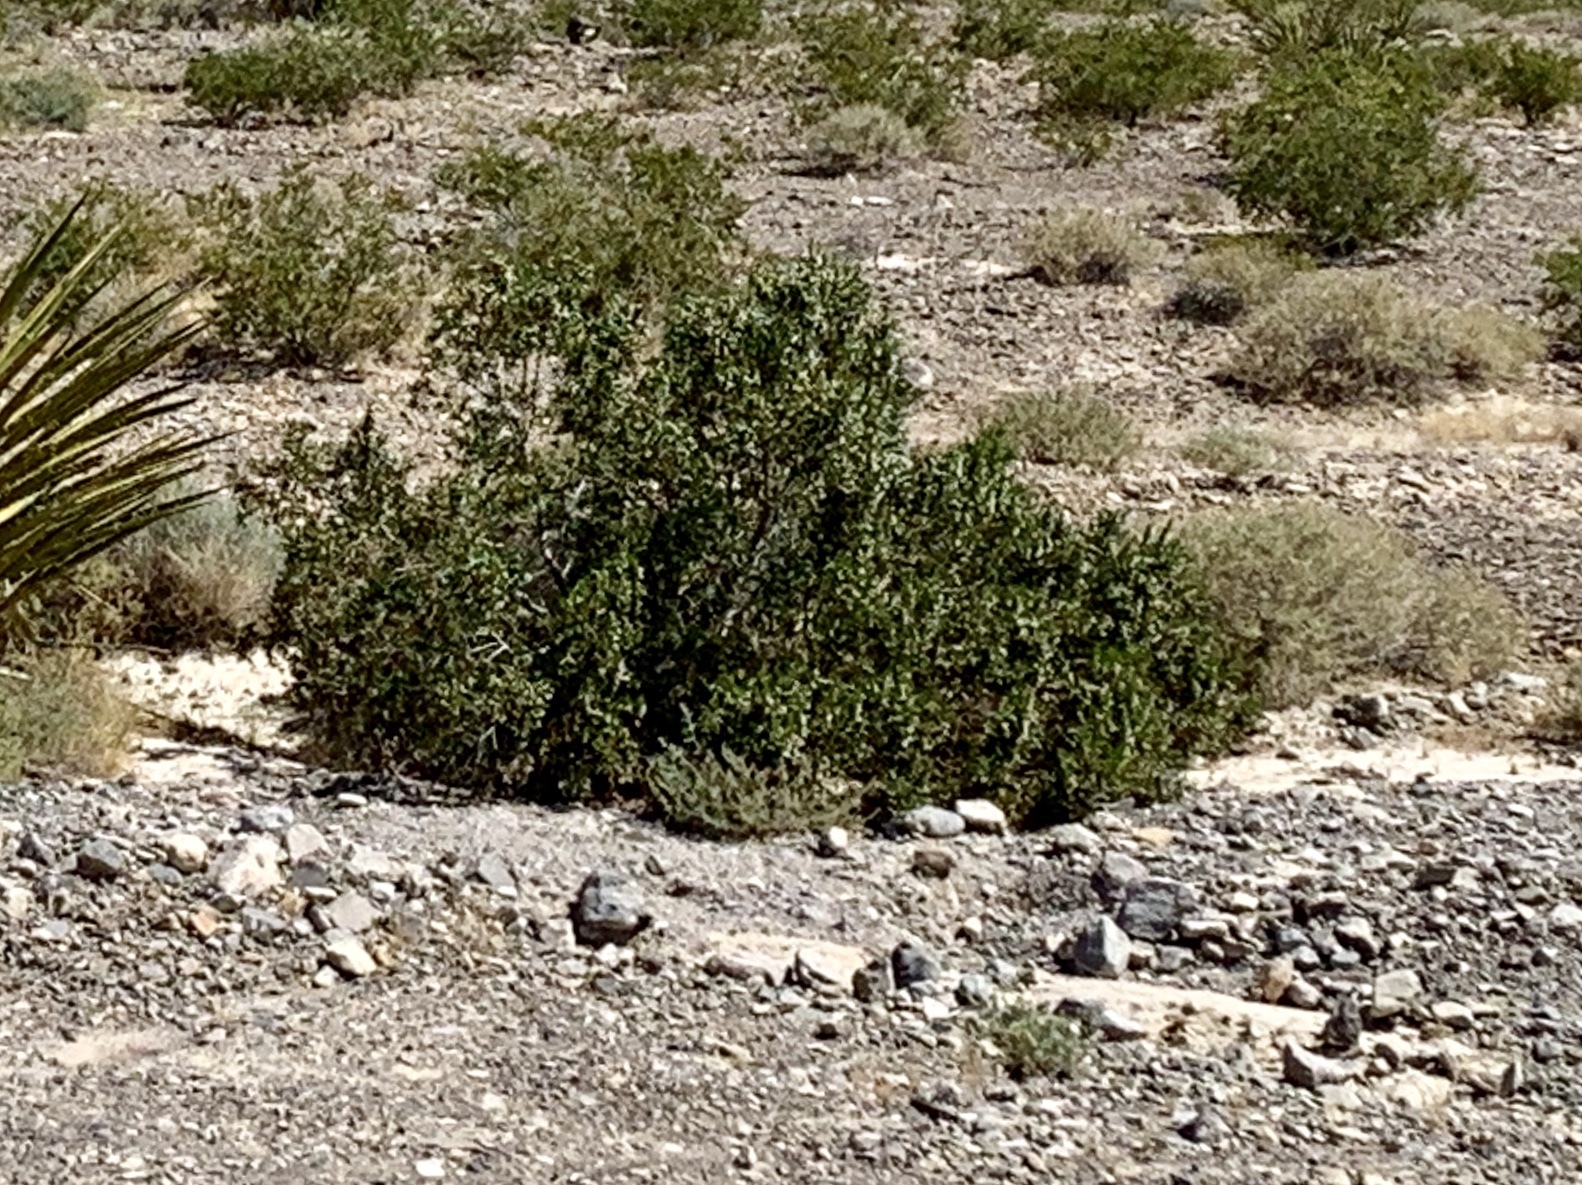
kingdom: Plantae
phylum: Tracheophyta
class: Magnoliopsida
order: Zygophyllales
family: Zygophyllaceae
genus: Larrea
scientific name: Larrea tridentata
